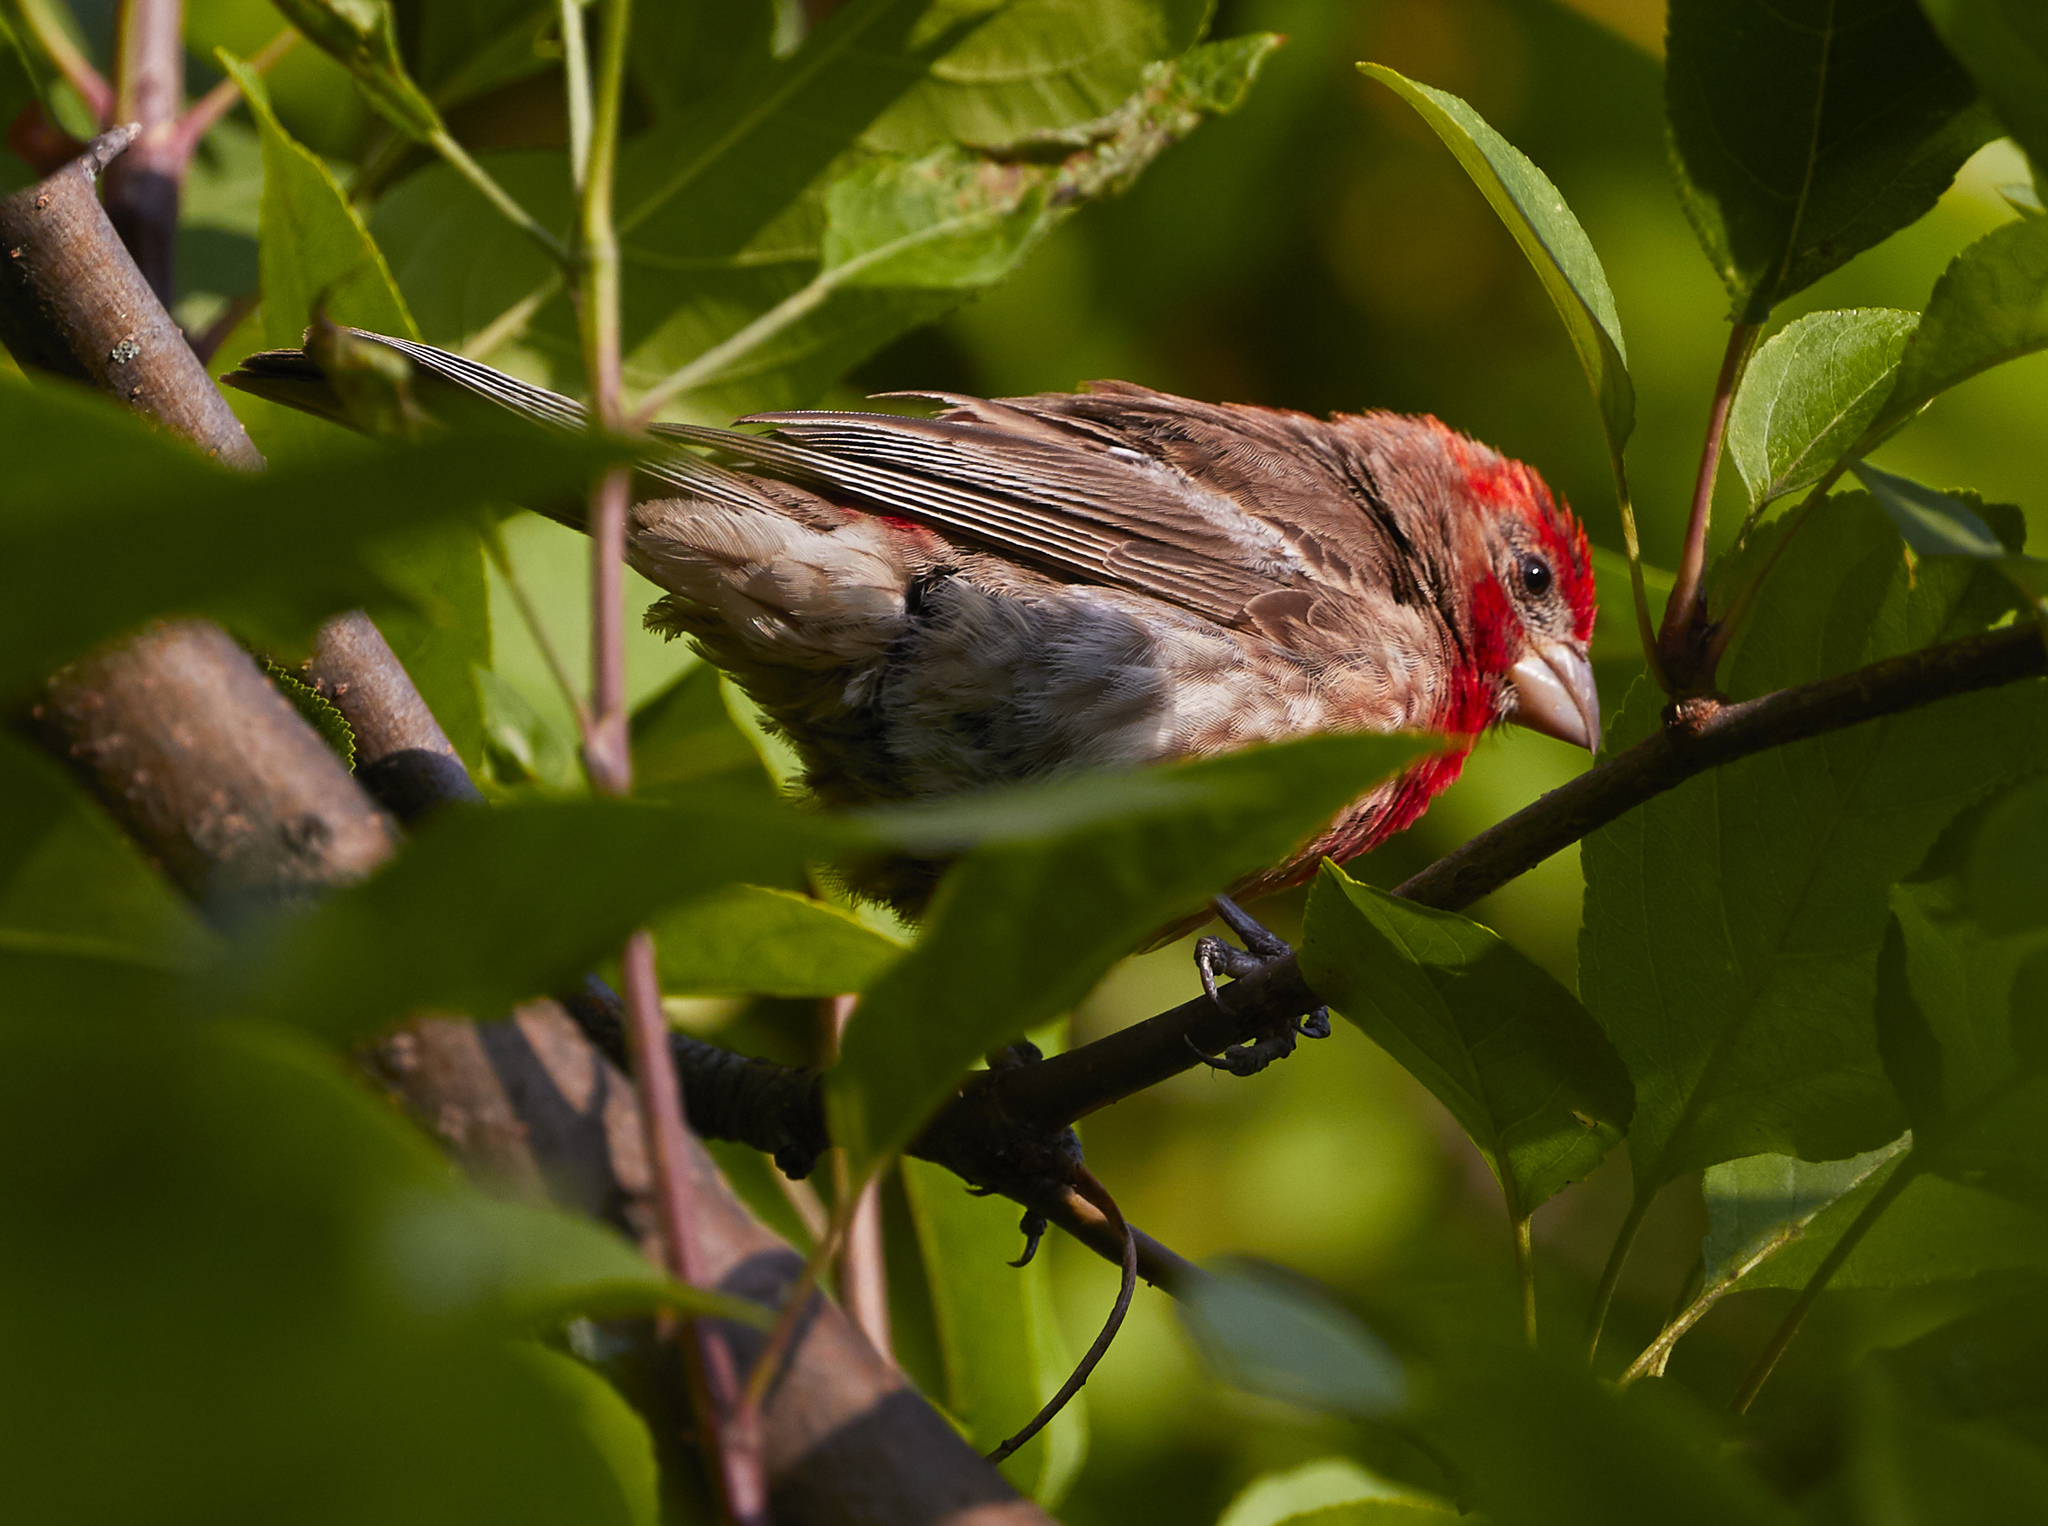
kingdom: Animalia
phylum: Chordata
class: Aves
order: Passeriformes
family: Fringillidae
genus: Haemorhous
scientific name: Haemorhous mexicanus
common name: House finch
